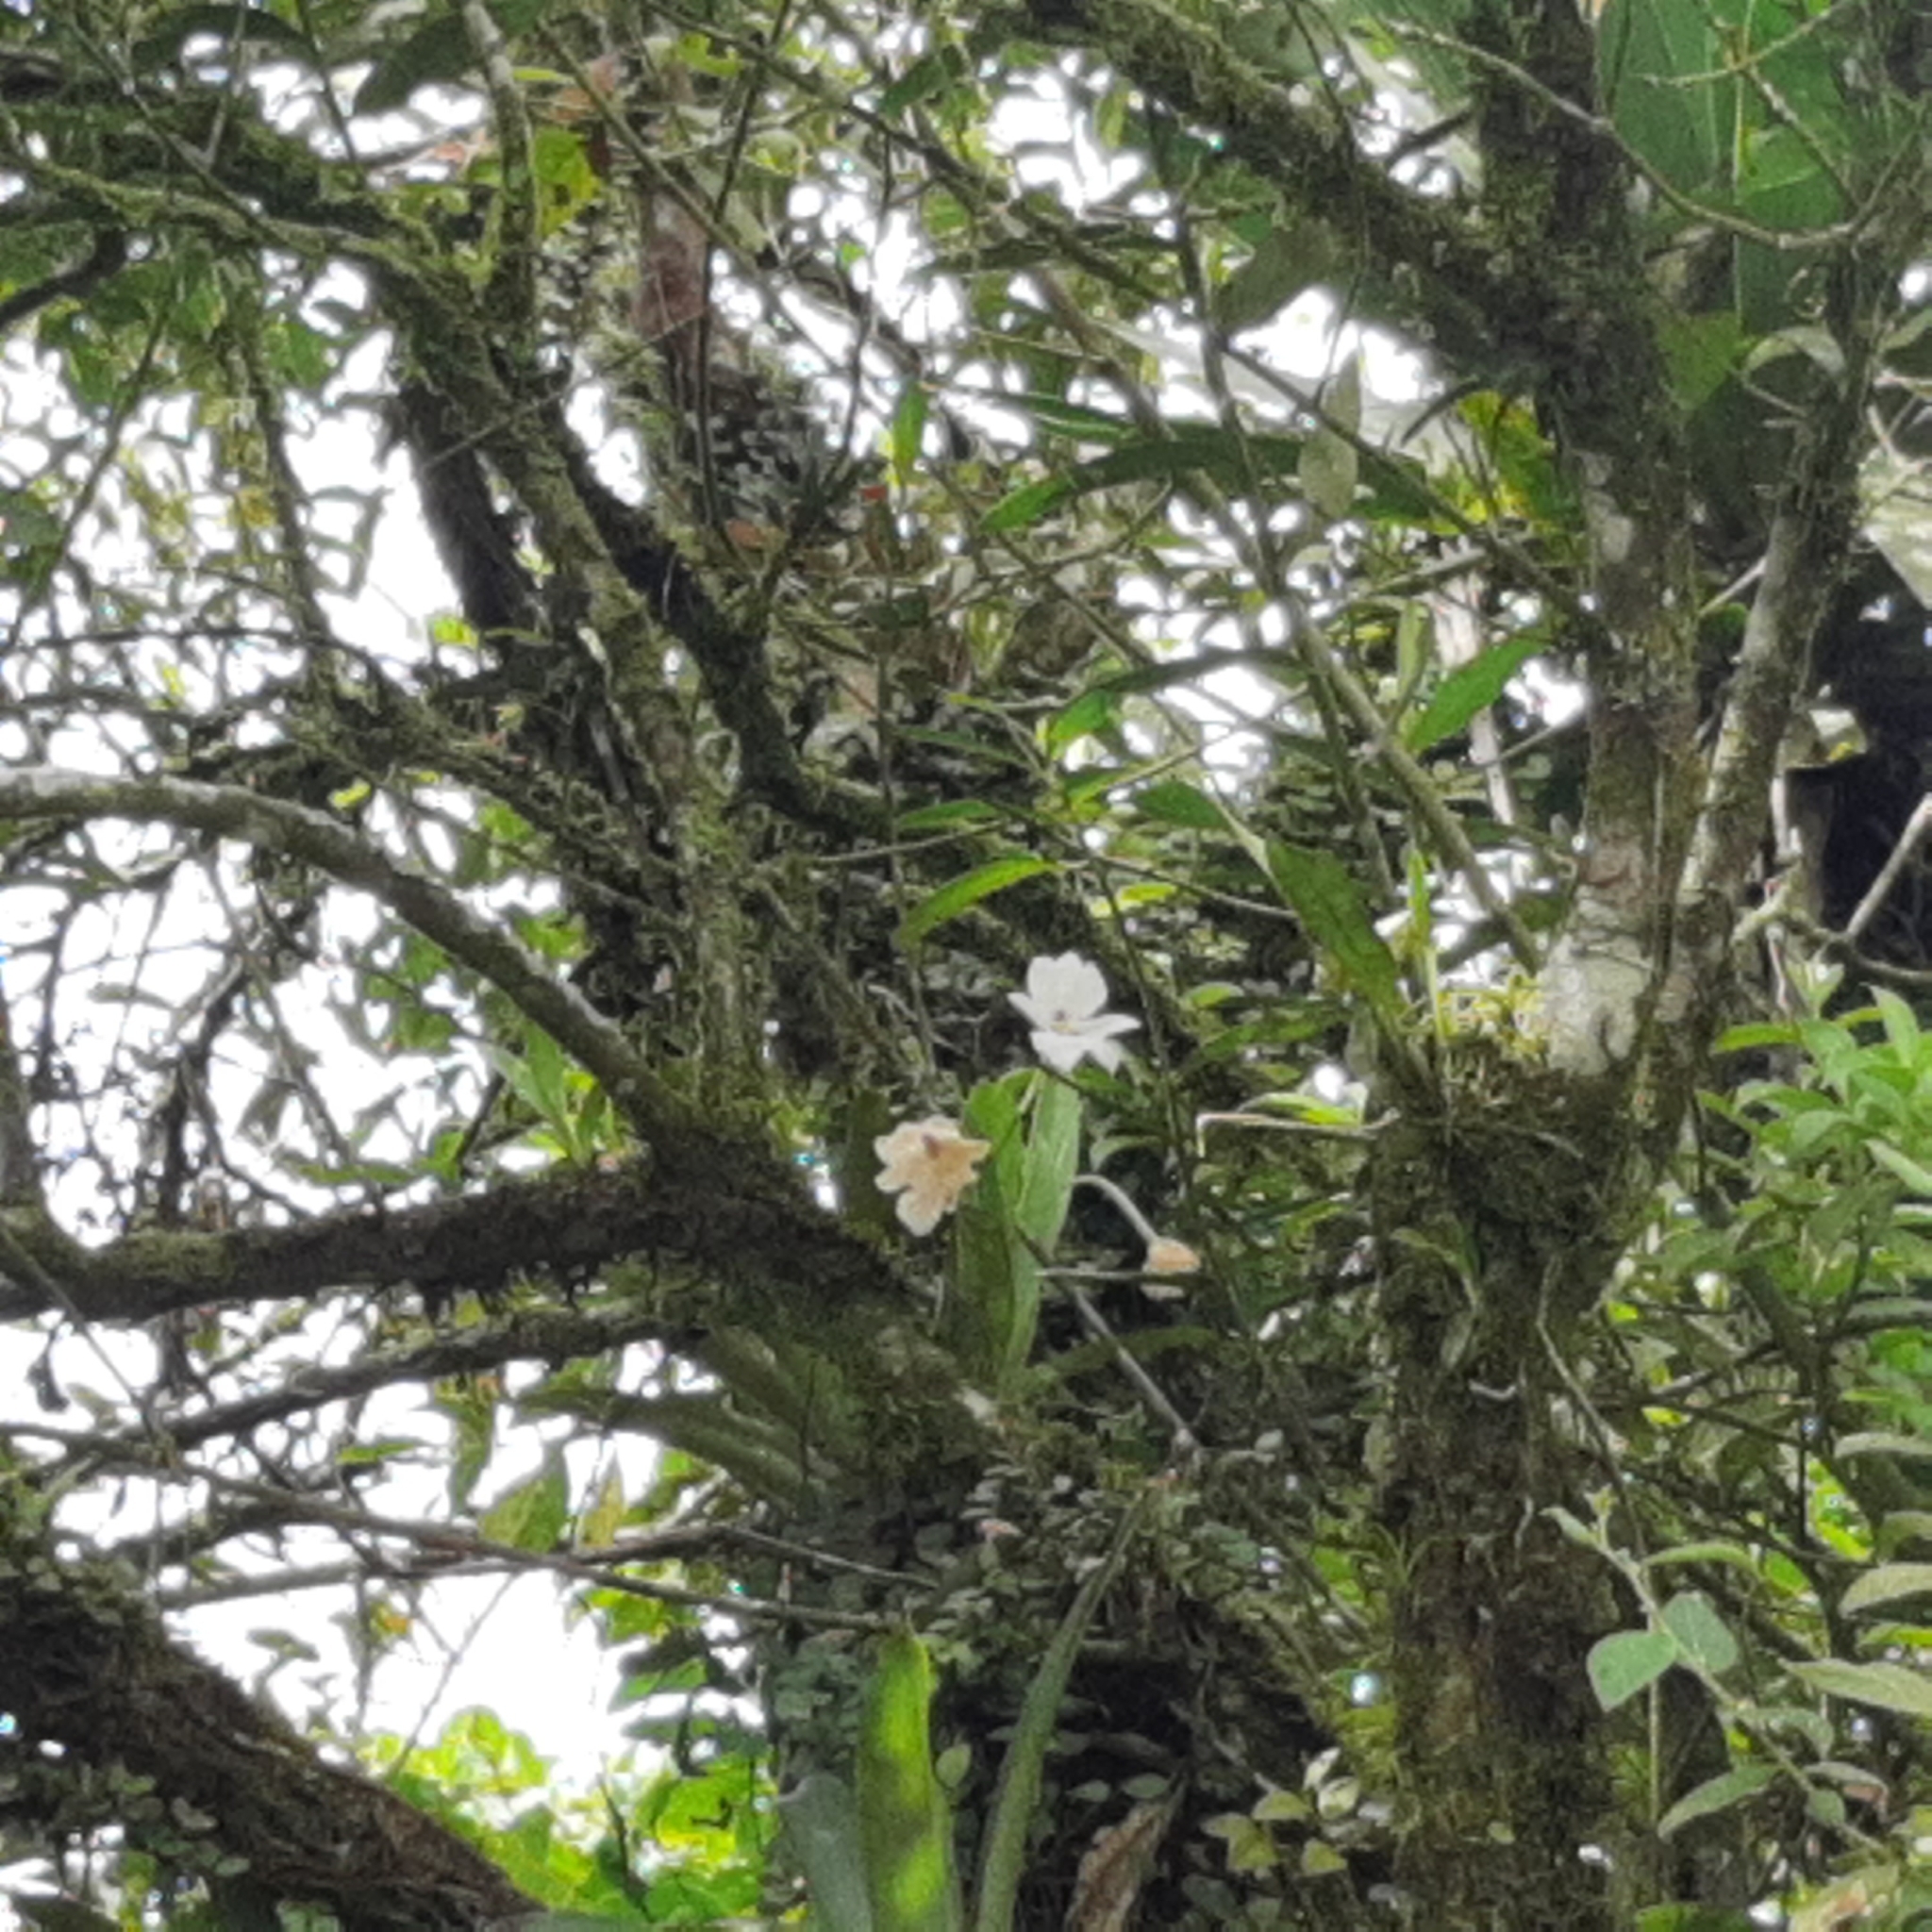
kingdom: Plantae
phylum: Tracheophyta
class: Liliopsida
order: Asparagales
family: Orchidaceae
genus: Miltoniopsis
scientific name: Miltoniopsis warszewiczii
